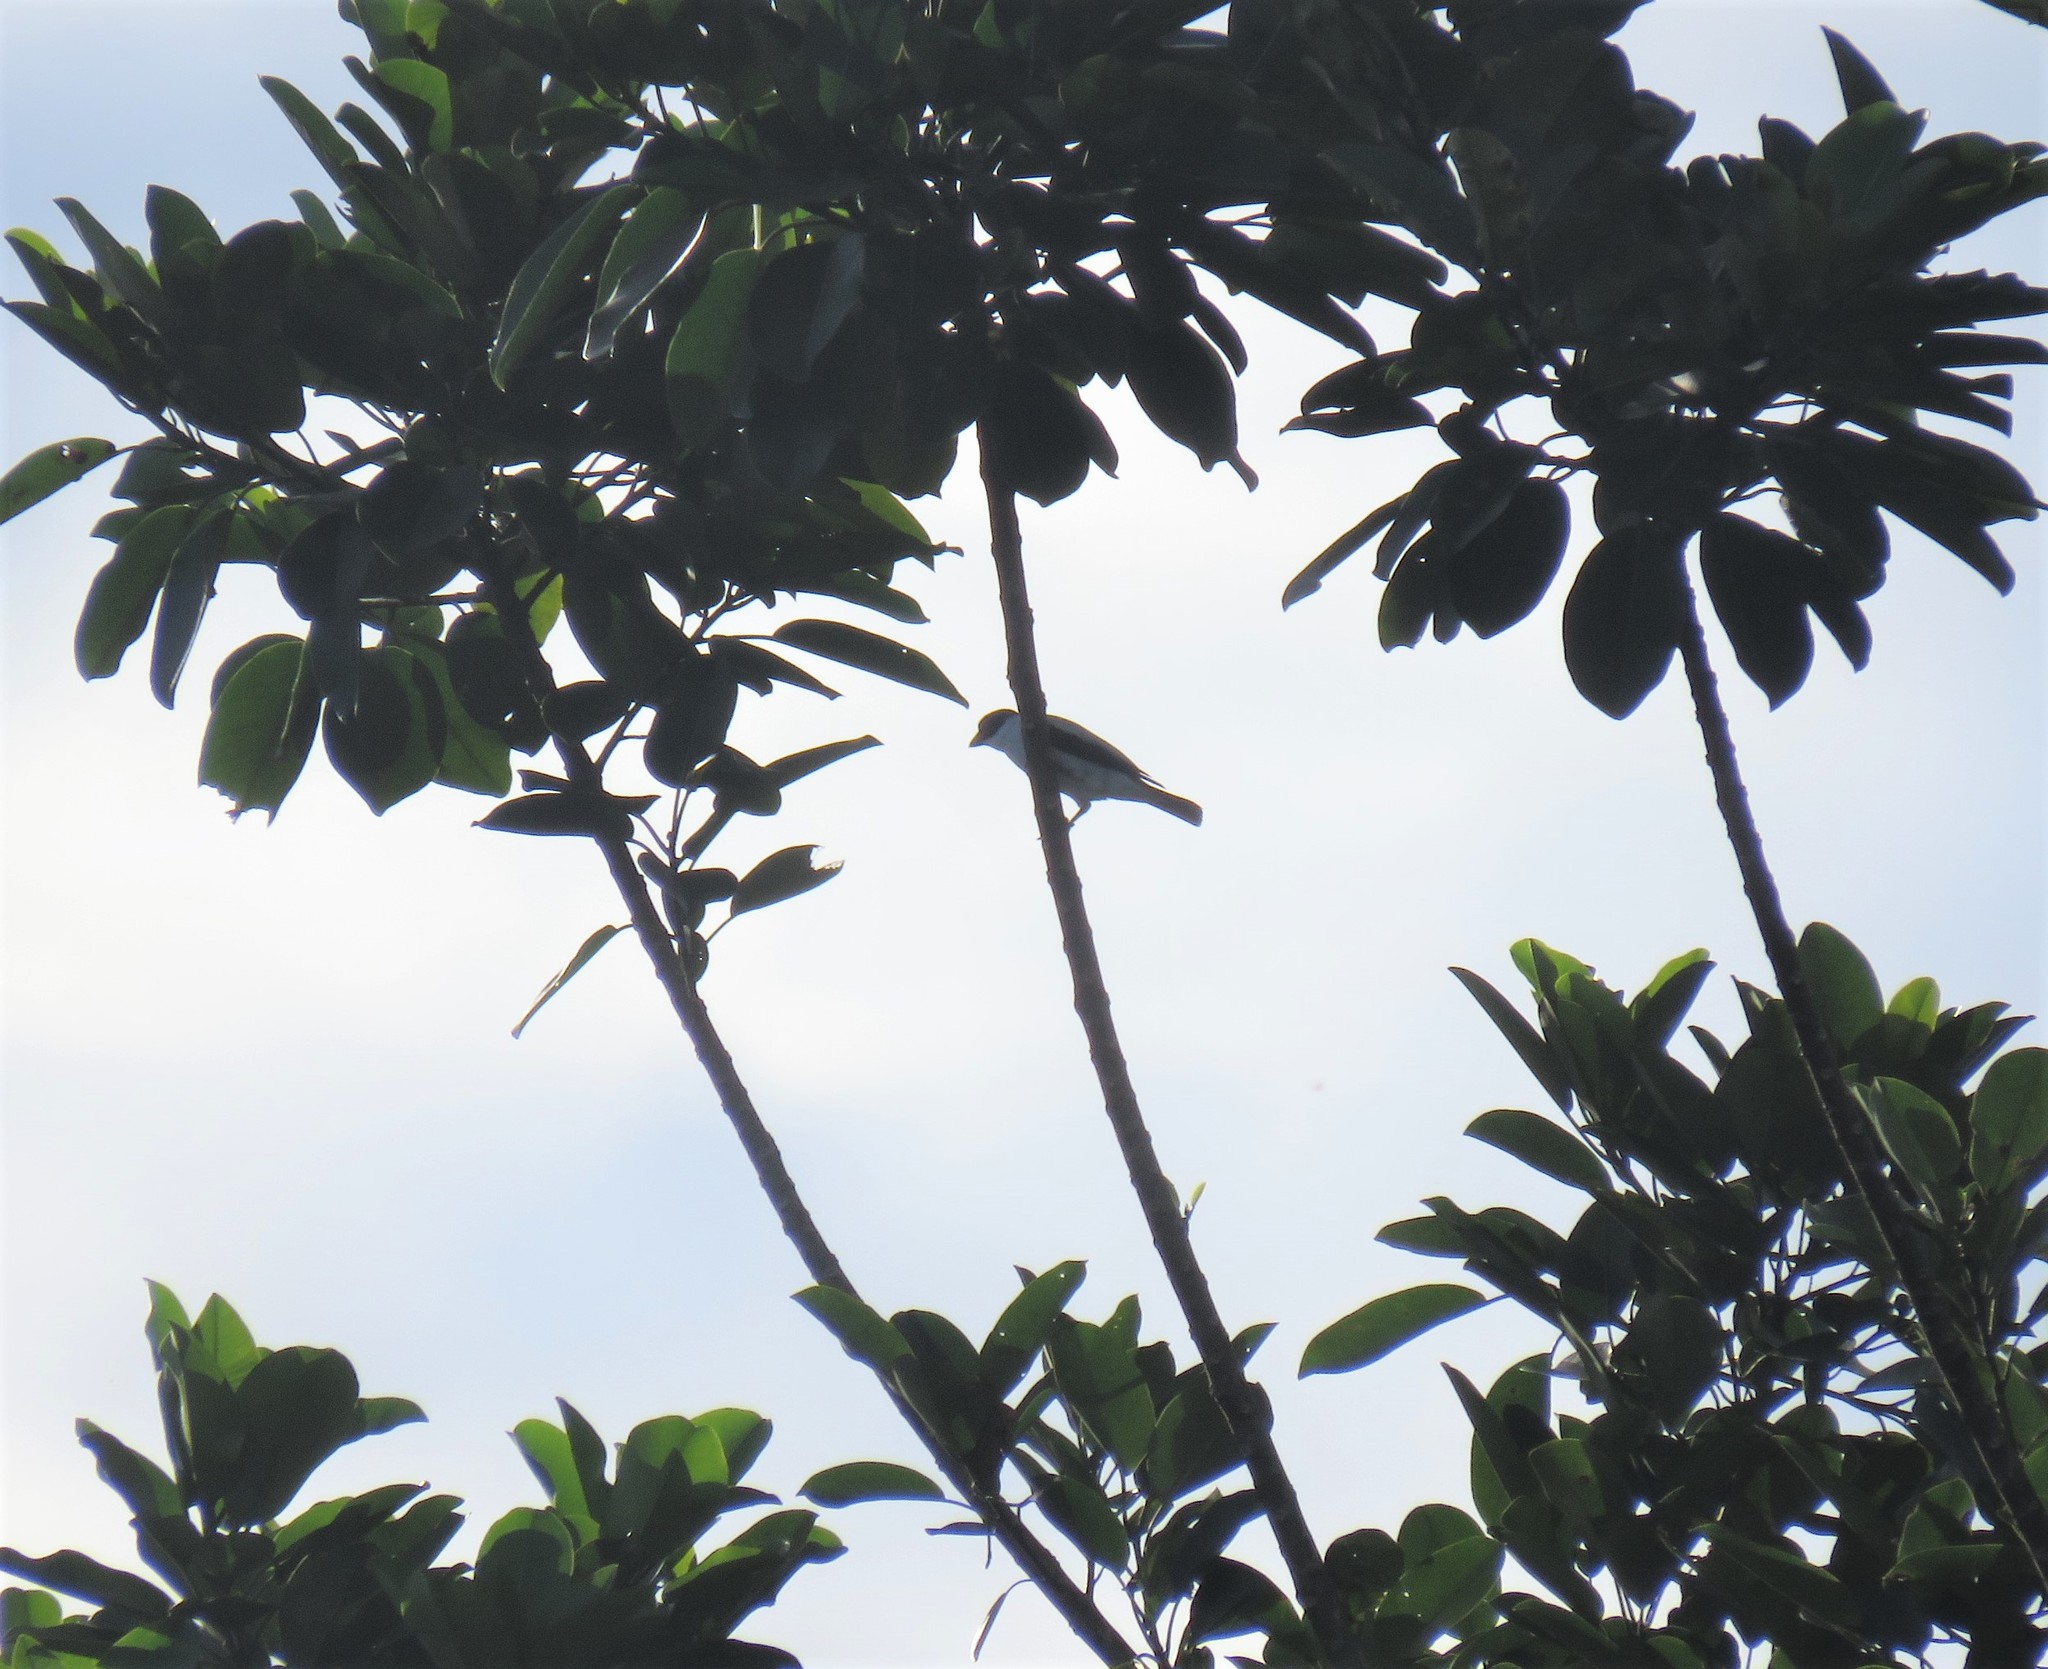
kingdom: Animalia
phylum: Chordata
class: Aves
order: Passeriformes
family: Cotingidae
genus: Tityra
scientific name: Tityra semifasciata
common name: Masked tityra
